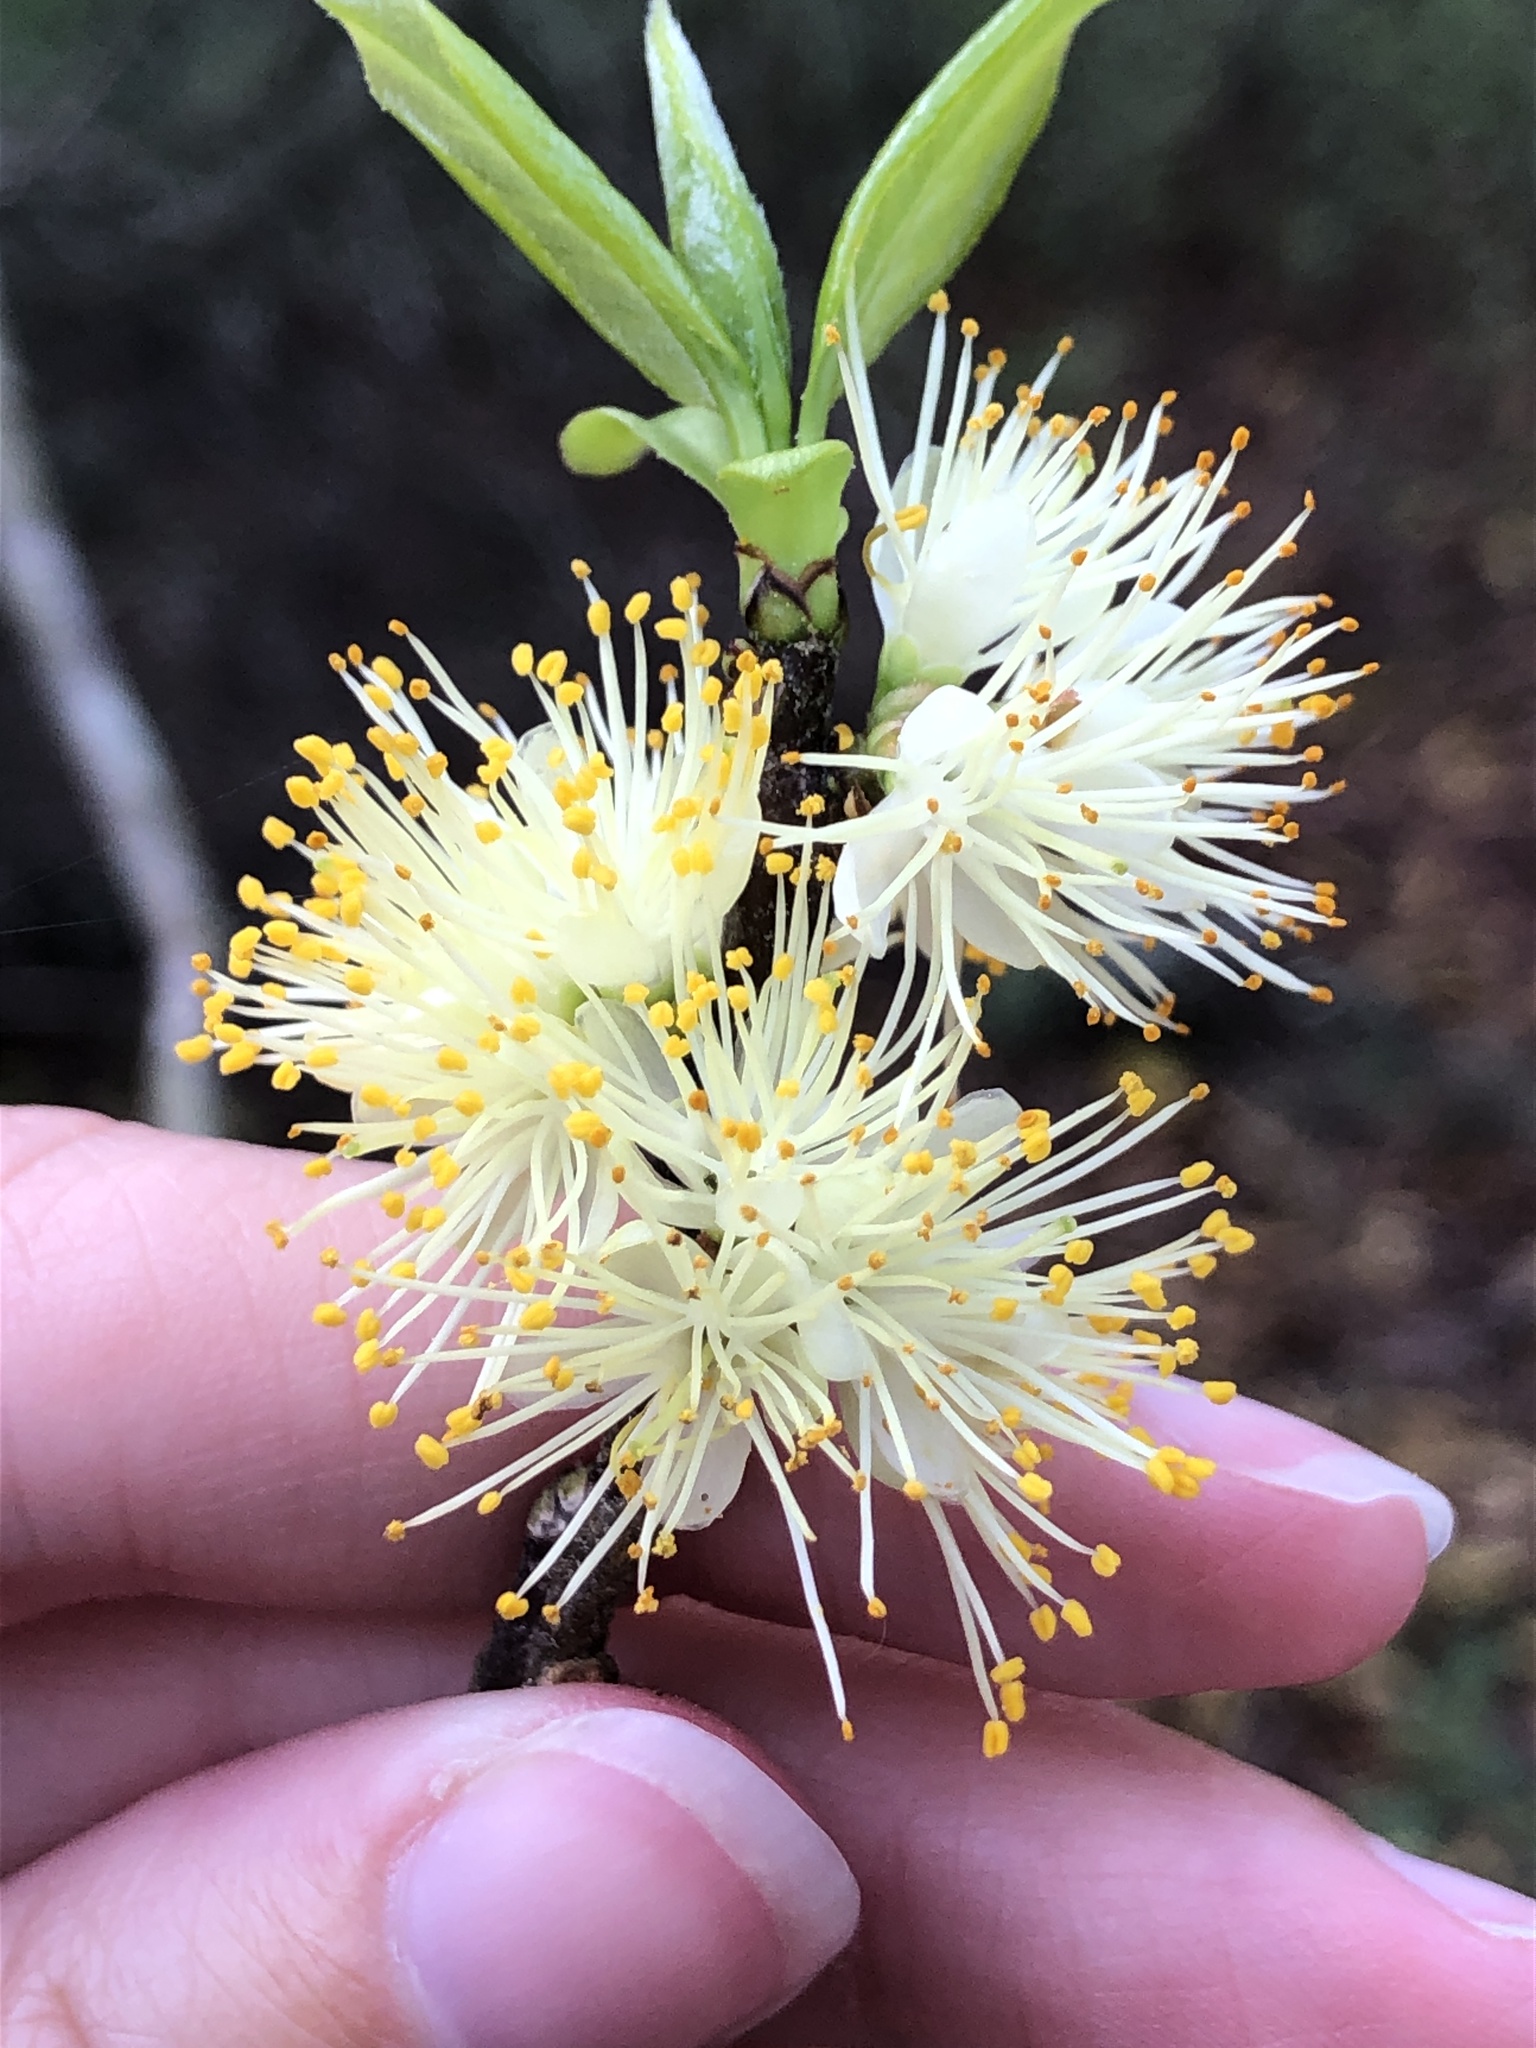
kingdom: Plantae
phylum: Tracheophyta
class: Magnoliopsida
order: Ericales
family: Symplocaceae
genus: Symplocos
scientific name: Symplocos tinctoria
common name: Horse-sugar
